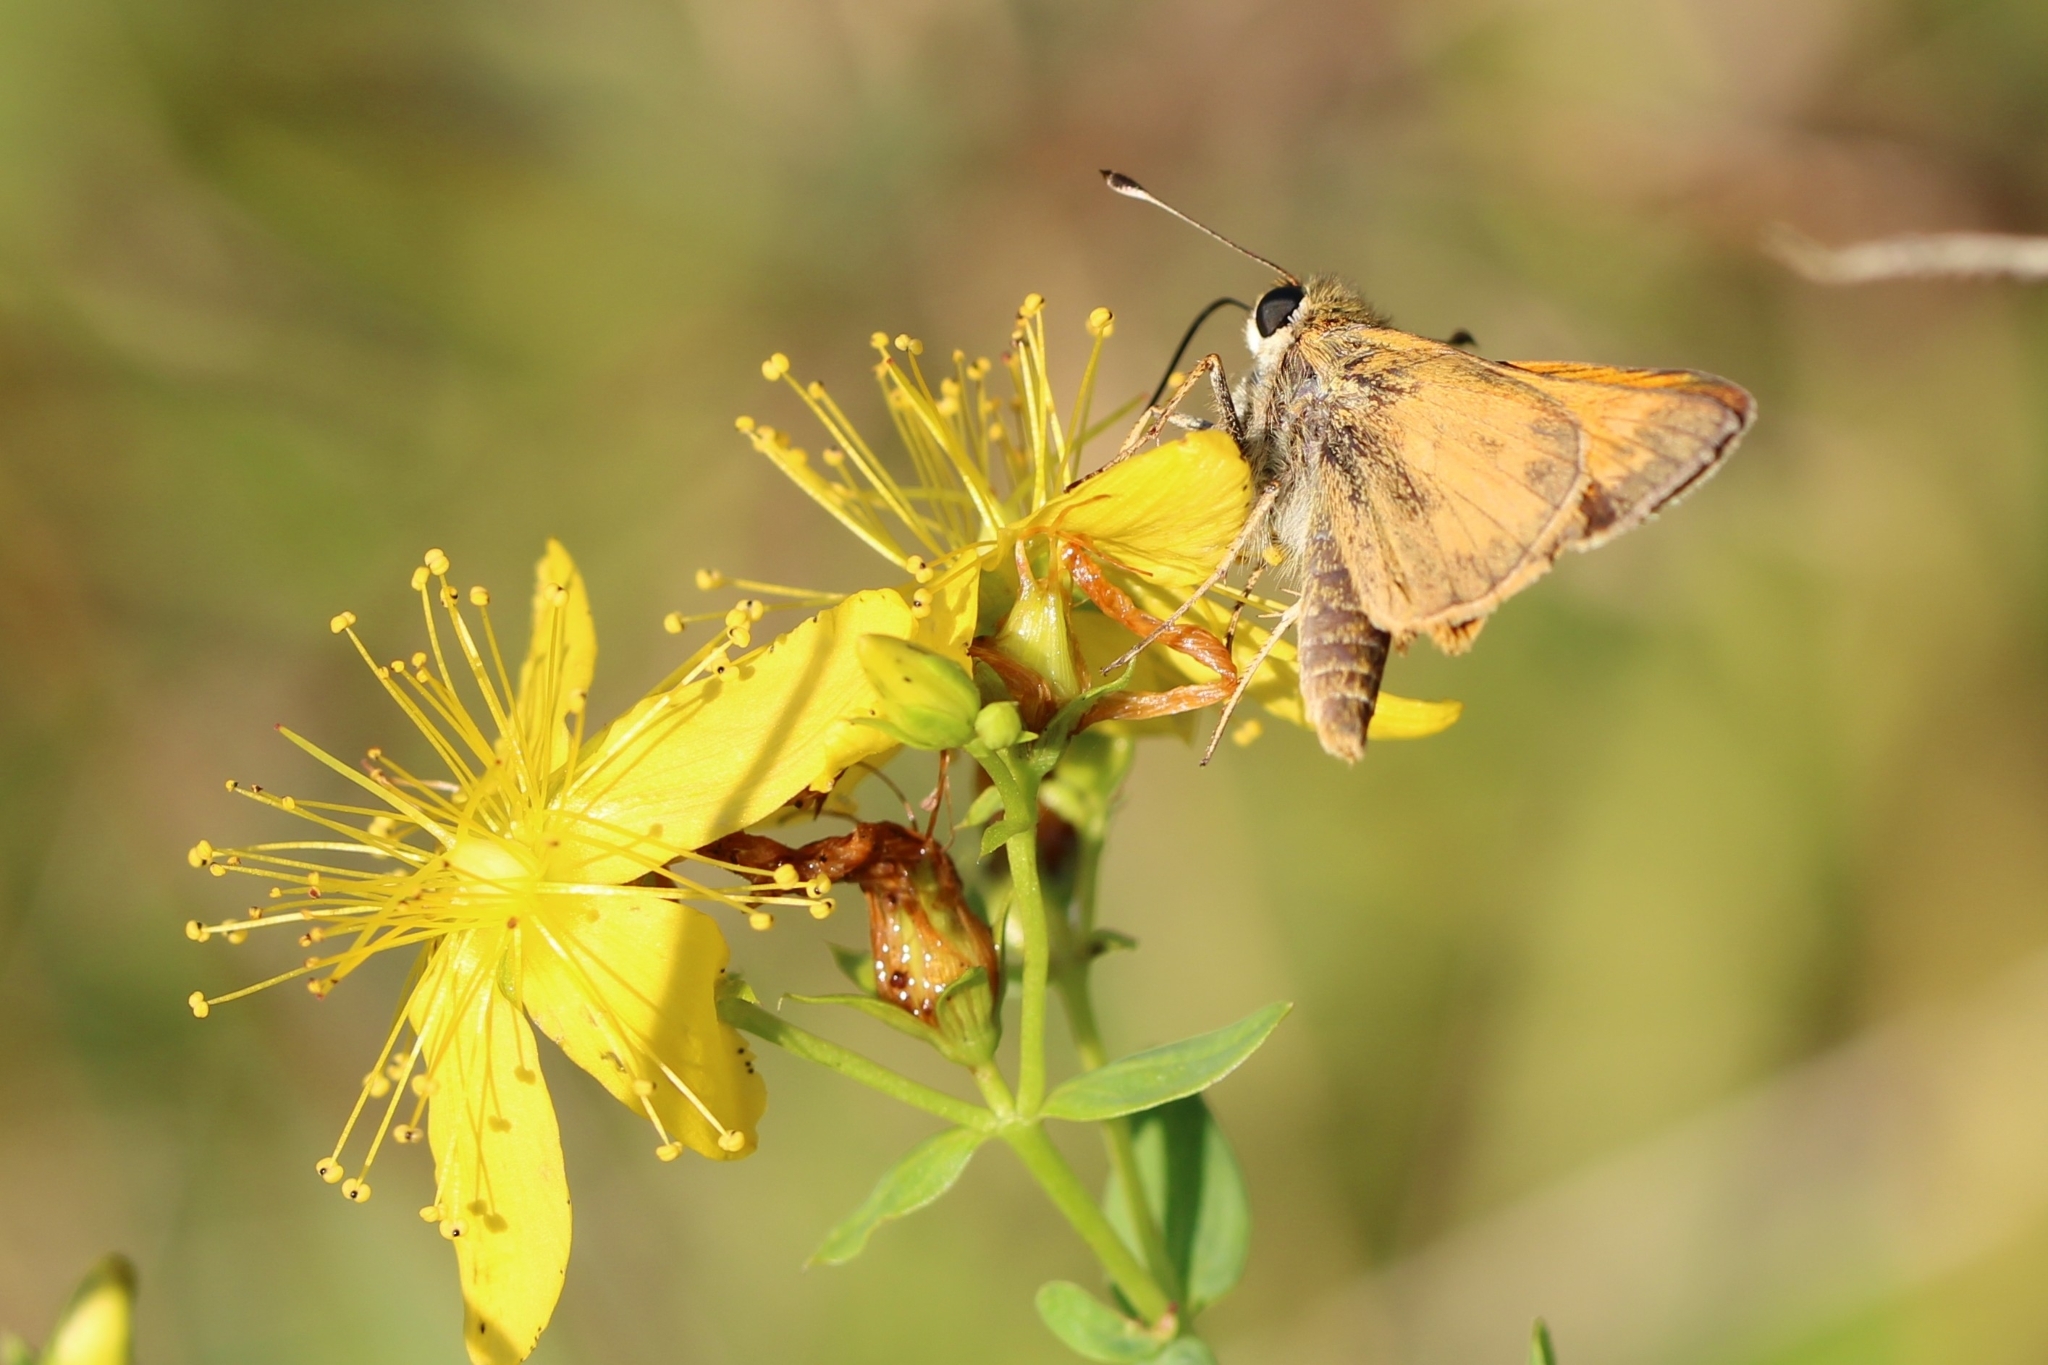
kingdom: Animalia
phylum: Arthropoda
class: Insecta
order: Lepidoptera
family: Hesperiidae
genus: Atalopedes
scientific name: Atalopedes
